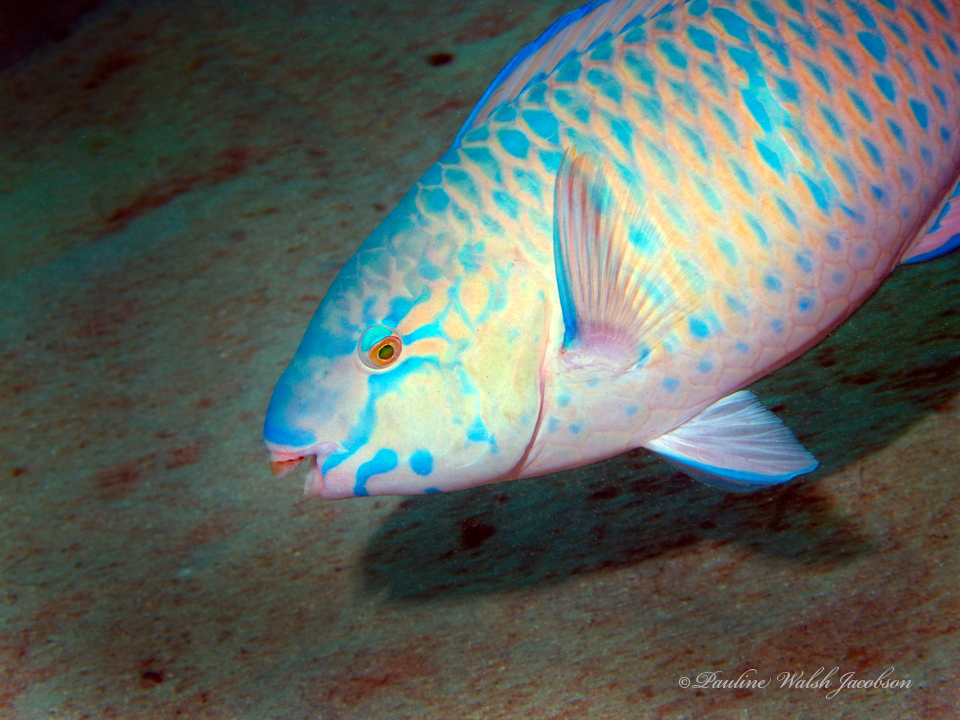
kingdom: Animalia
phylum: Chordata
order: Perciformes
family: Scaridae
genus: Scarus
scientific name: Scarus ghobban
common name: Blue-barred parrotfish
